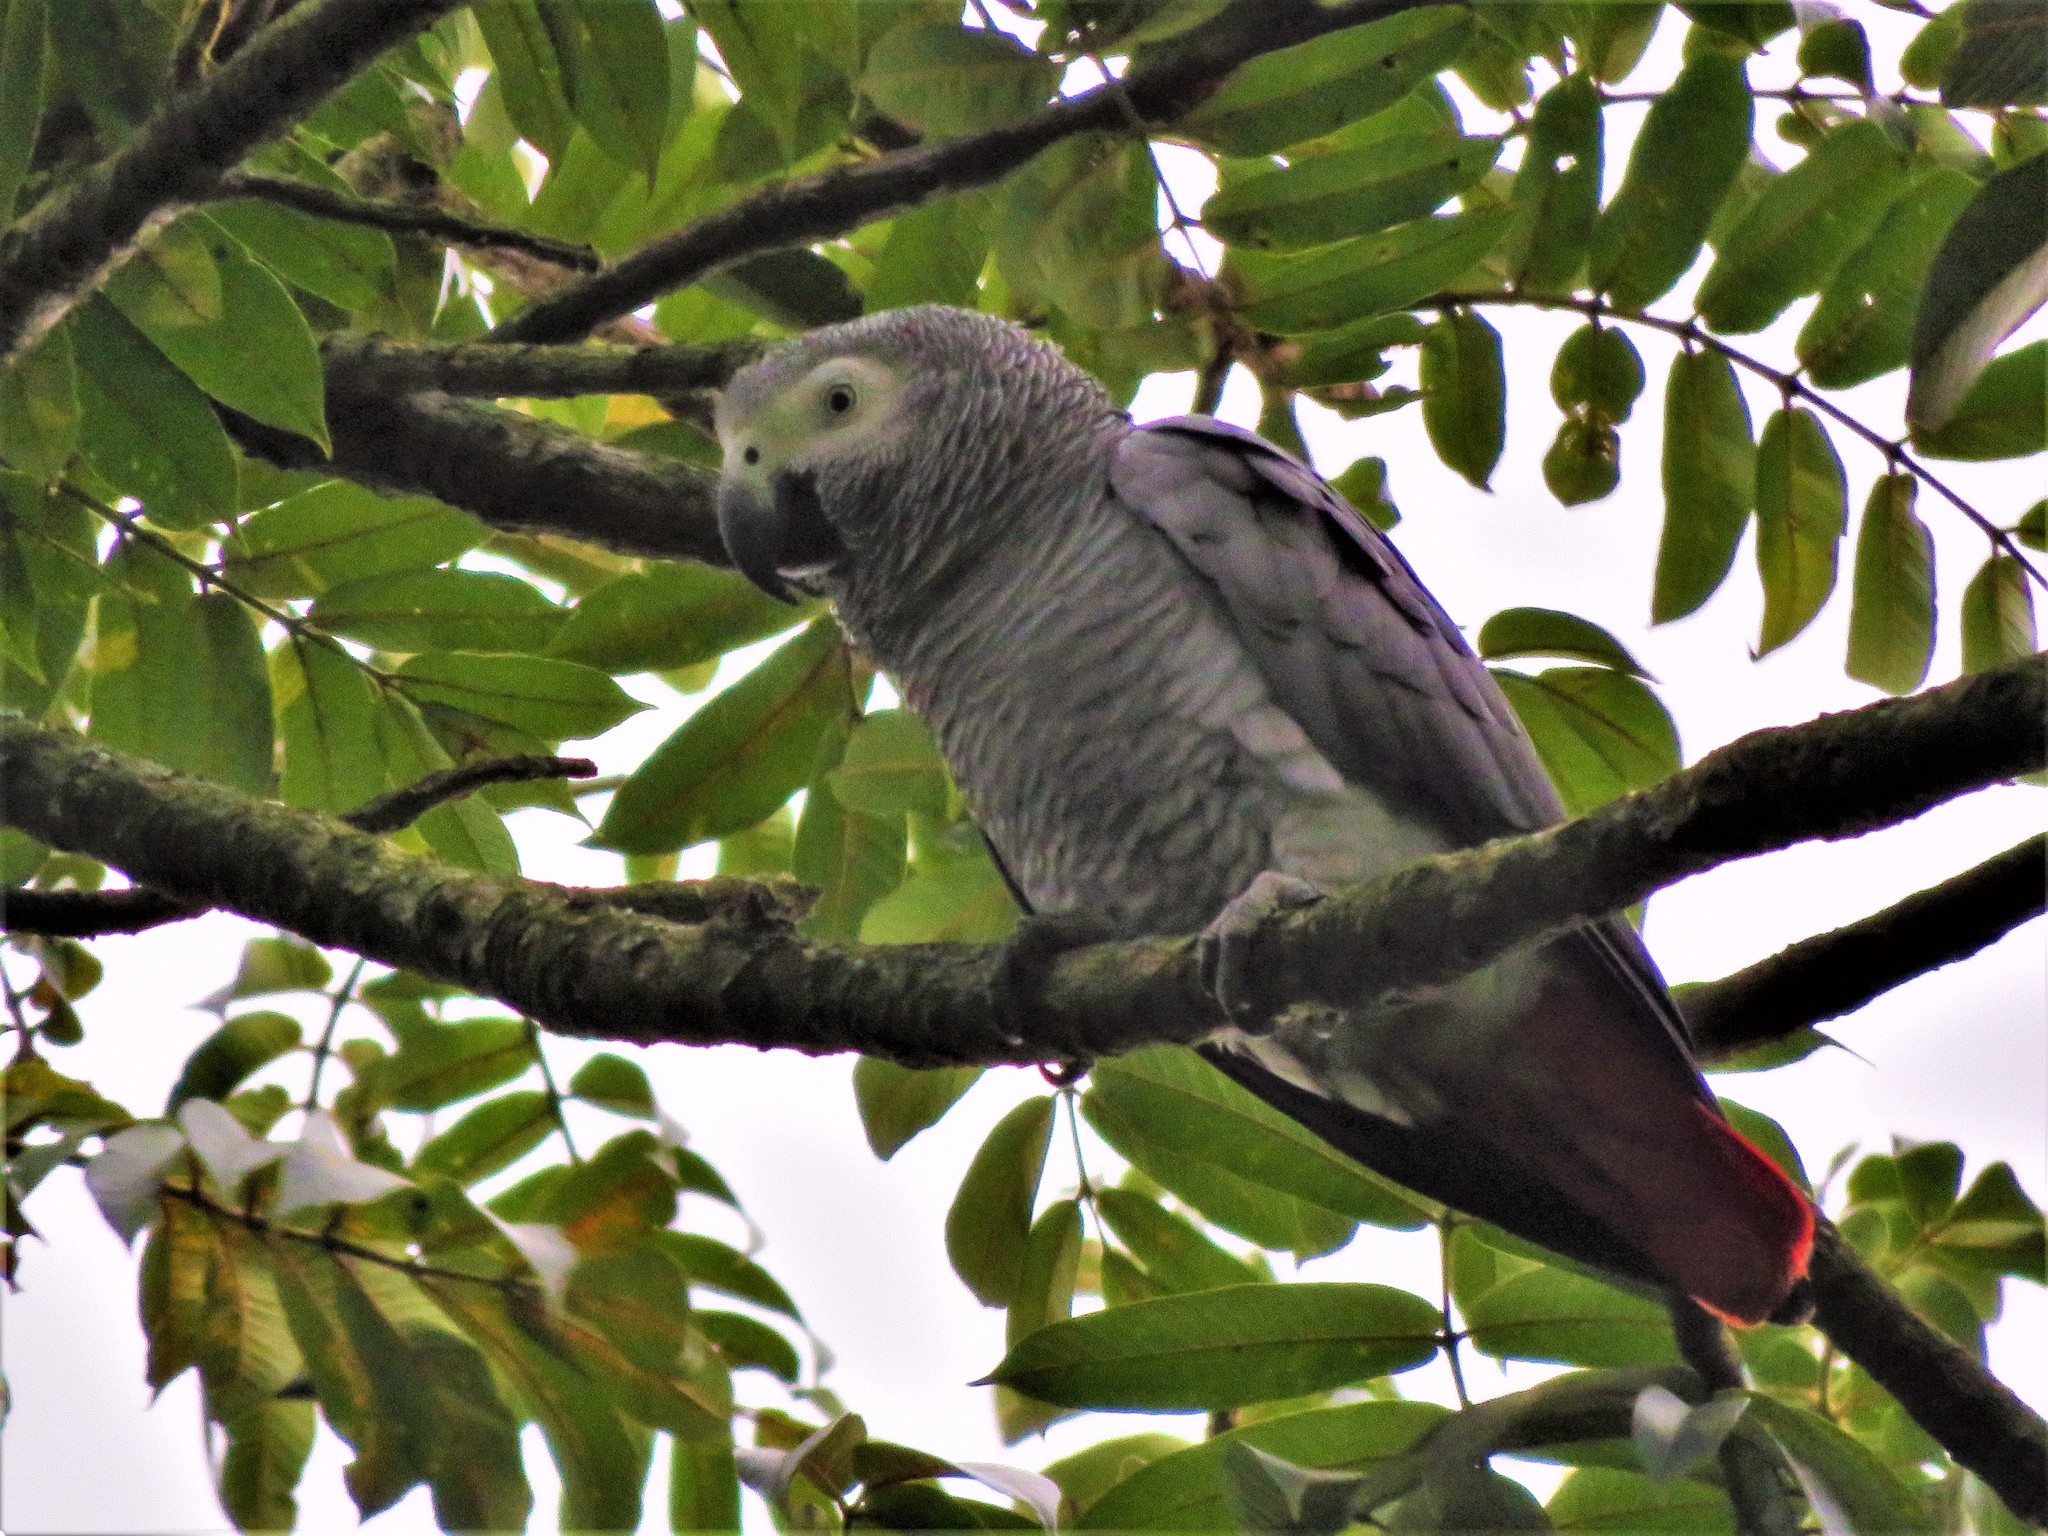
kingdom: Animalia
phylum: Chordata
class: Aves
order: Psittaciformes
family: Psittacidae
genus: Psittacus
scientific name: Psittacus erithacus
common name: Grey parrot
